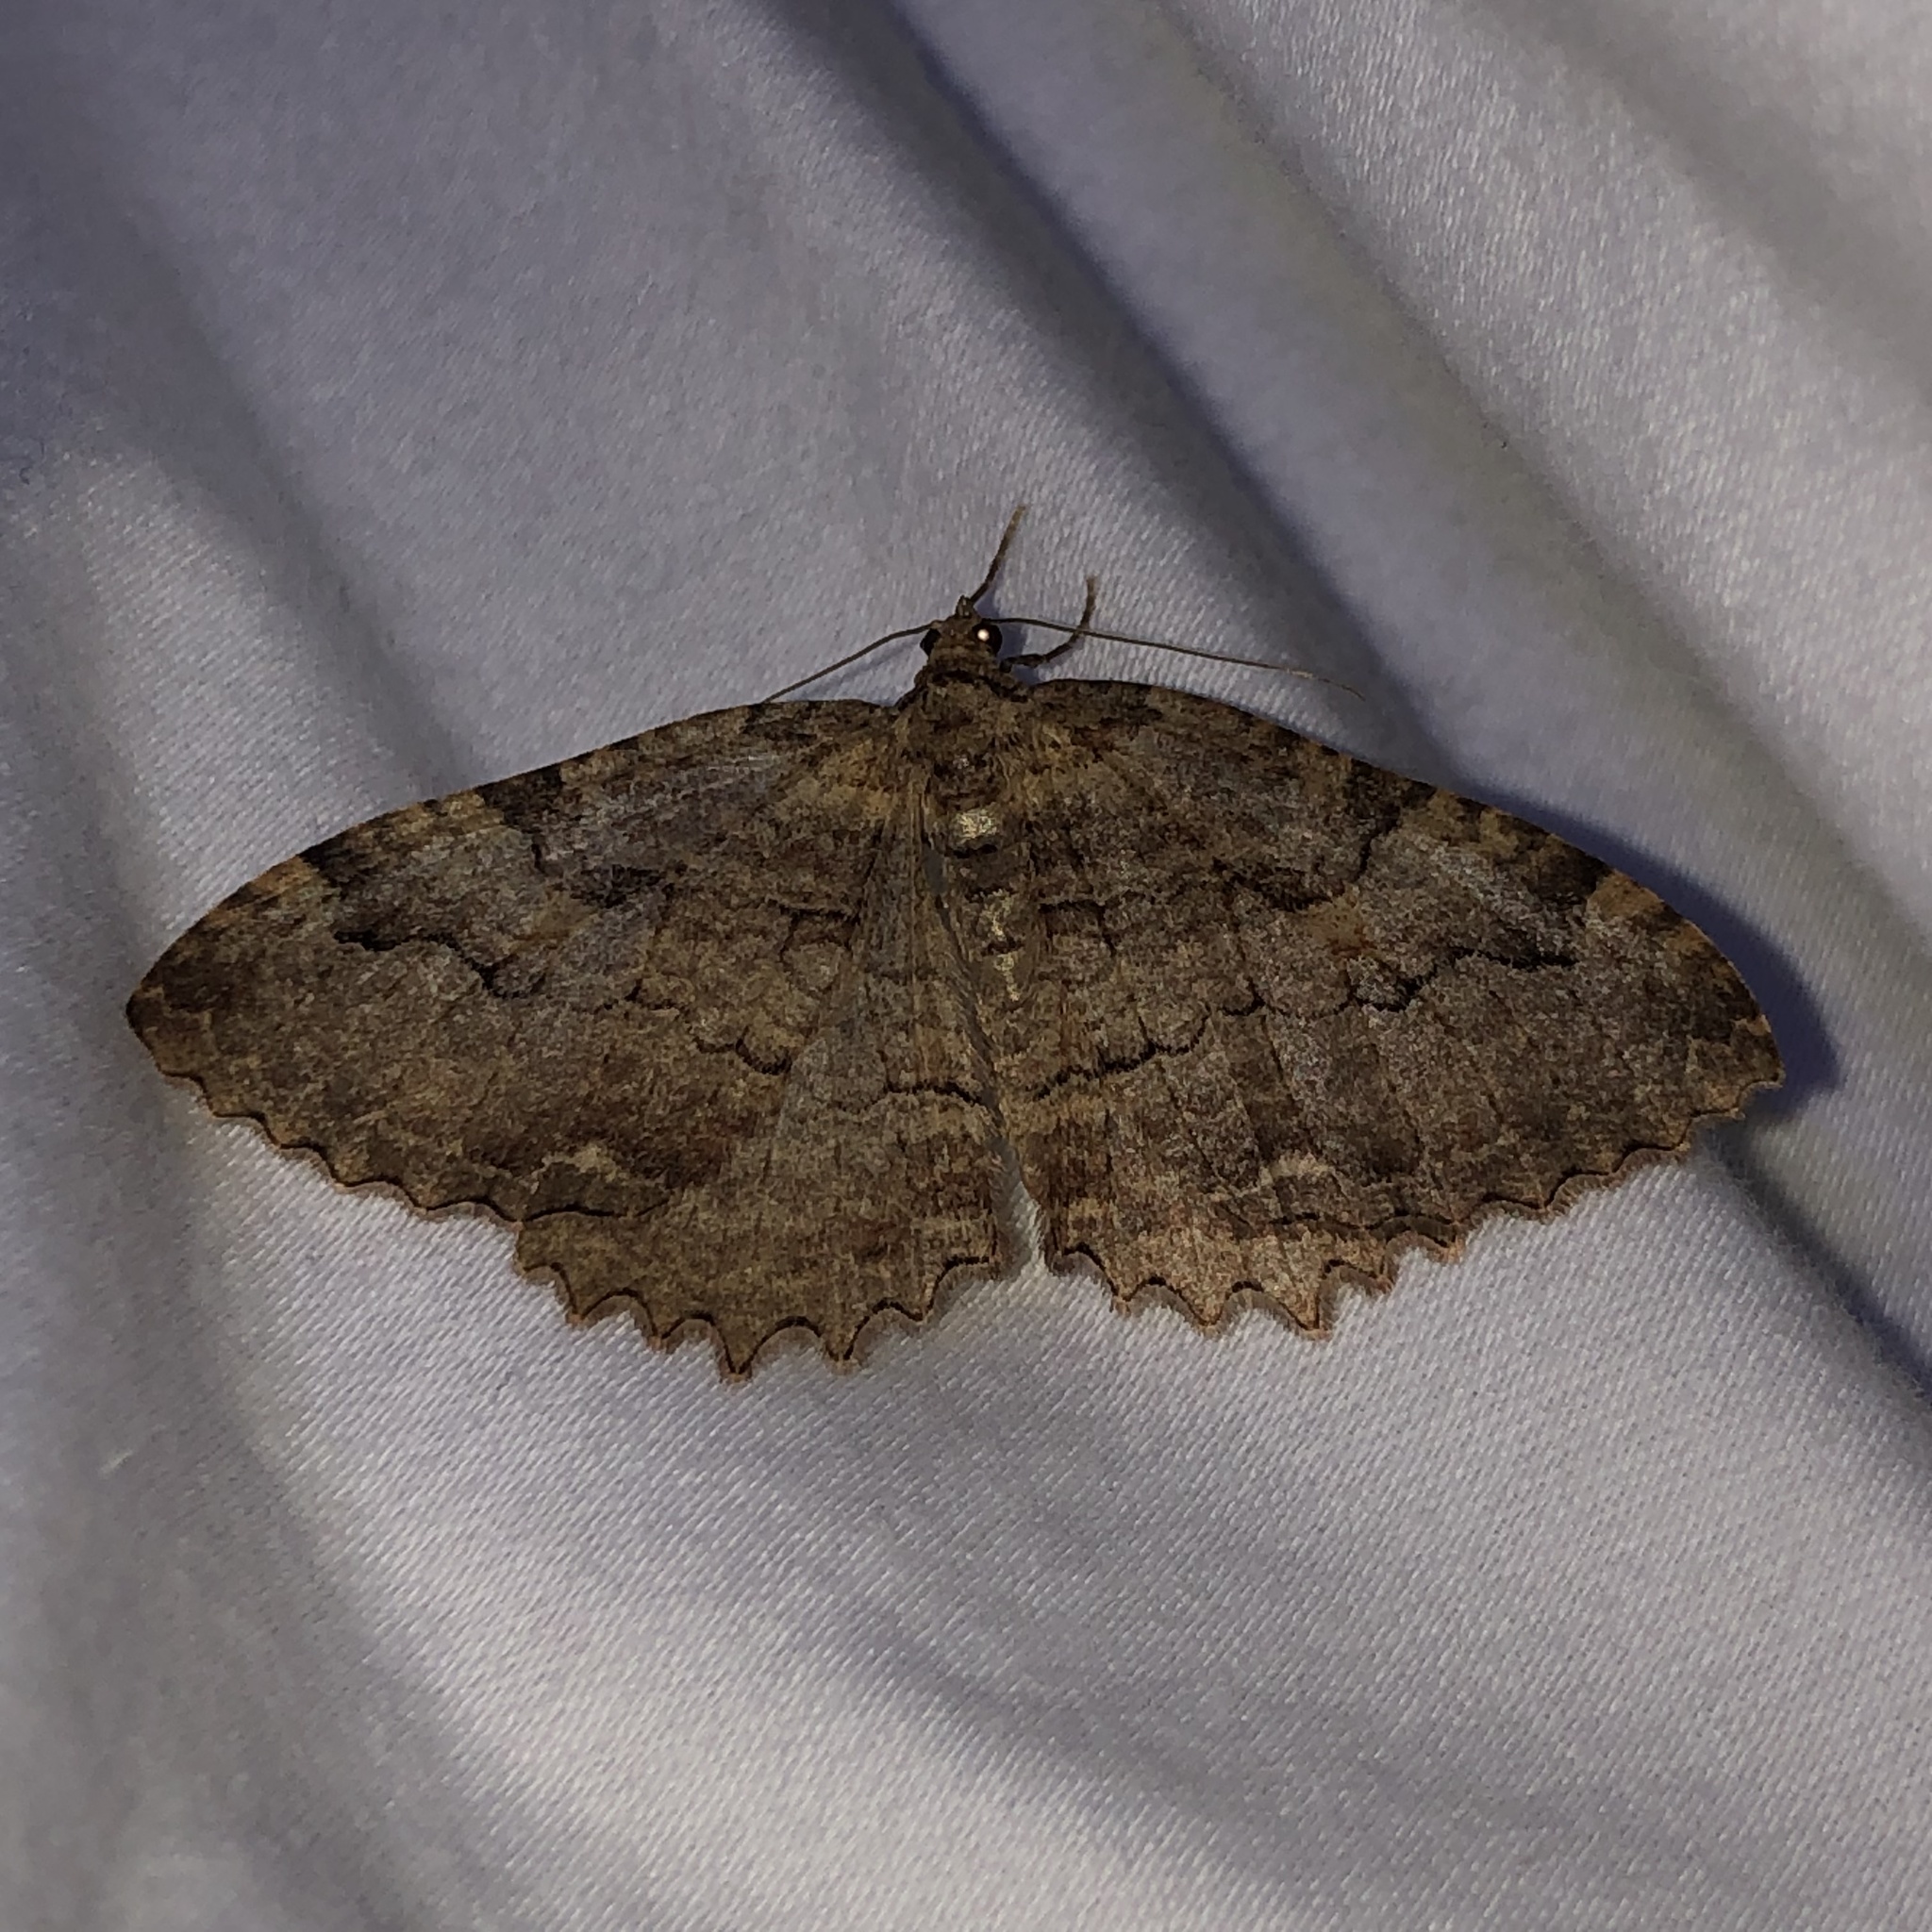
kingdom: Animalia
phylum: Arthropoda
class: Insecta
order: Lepidoptera
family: Geometridae
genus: Triphosa
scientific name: Triphosa haesitata
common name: Tissue moth
